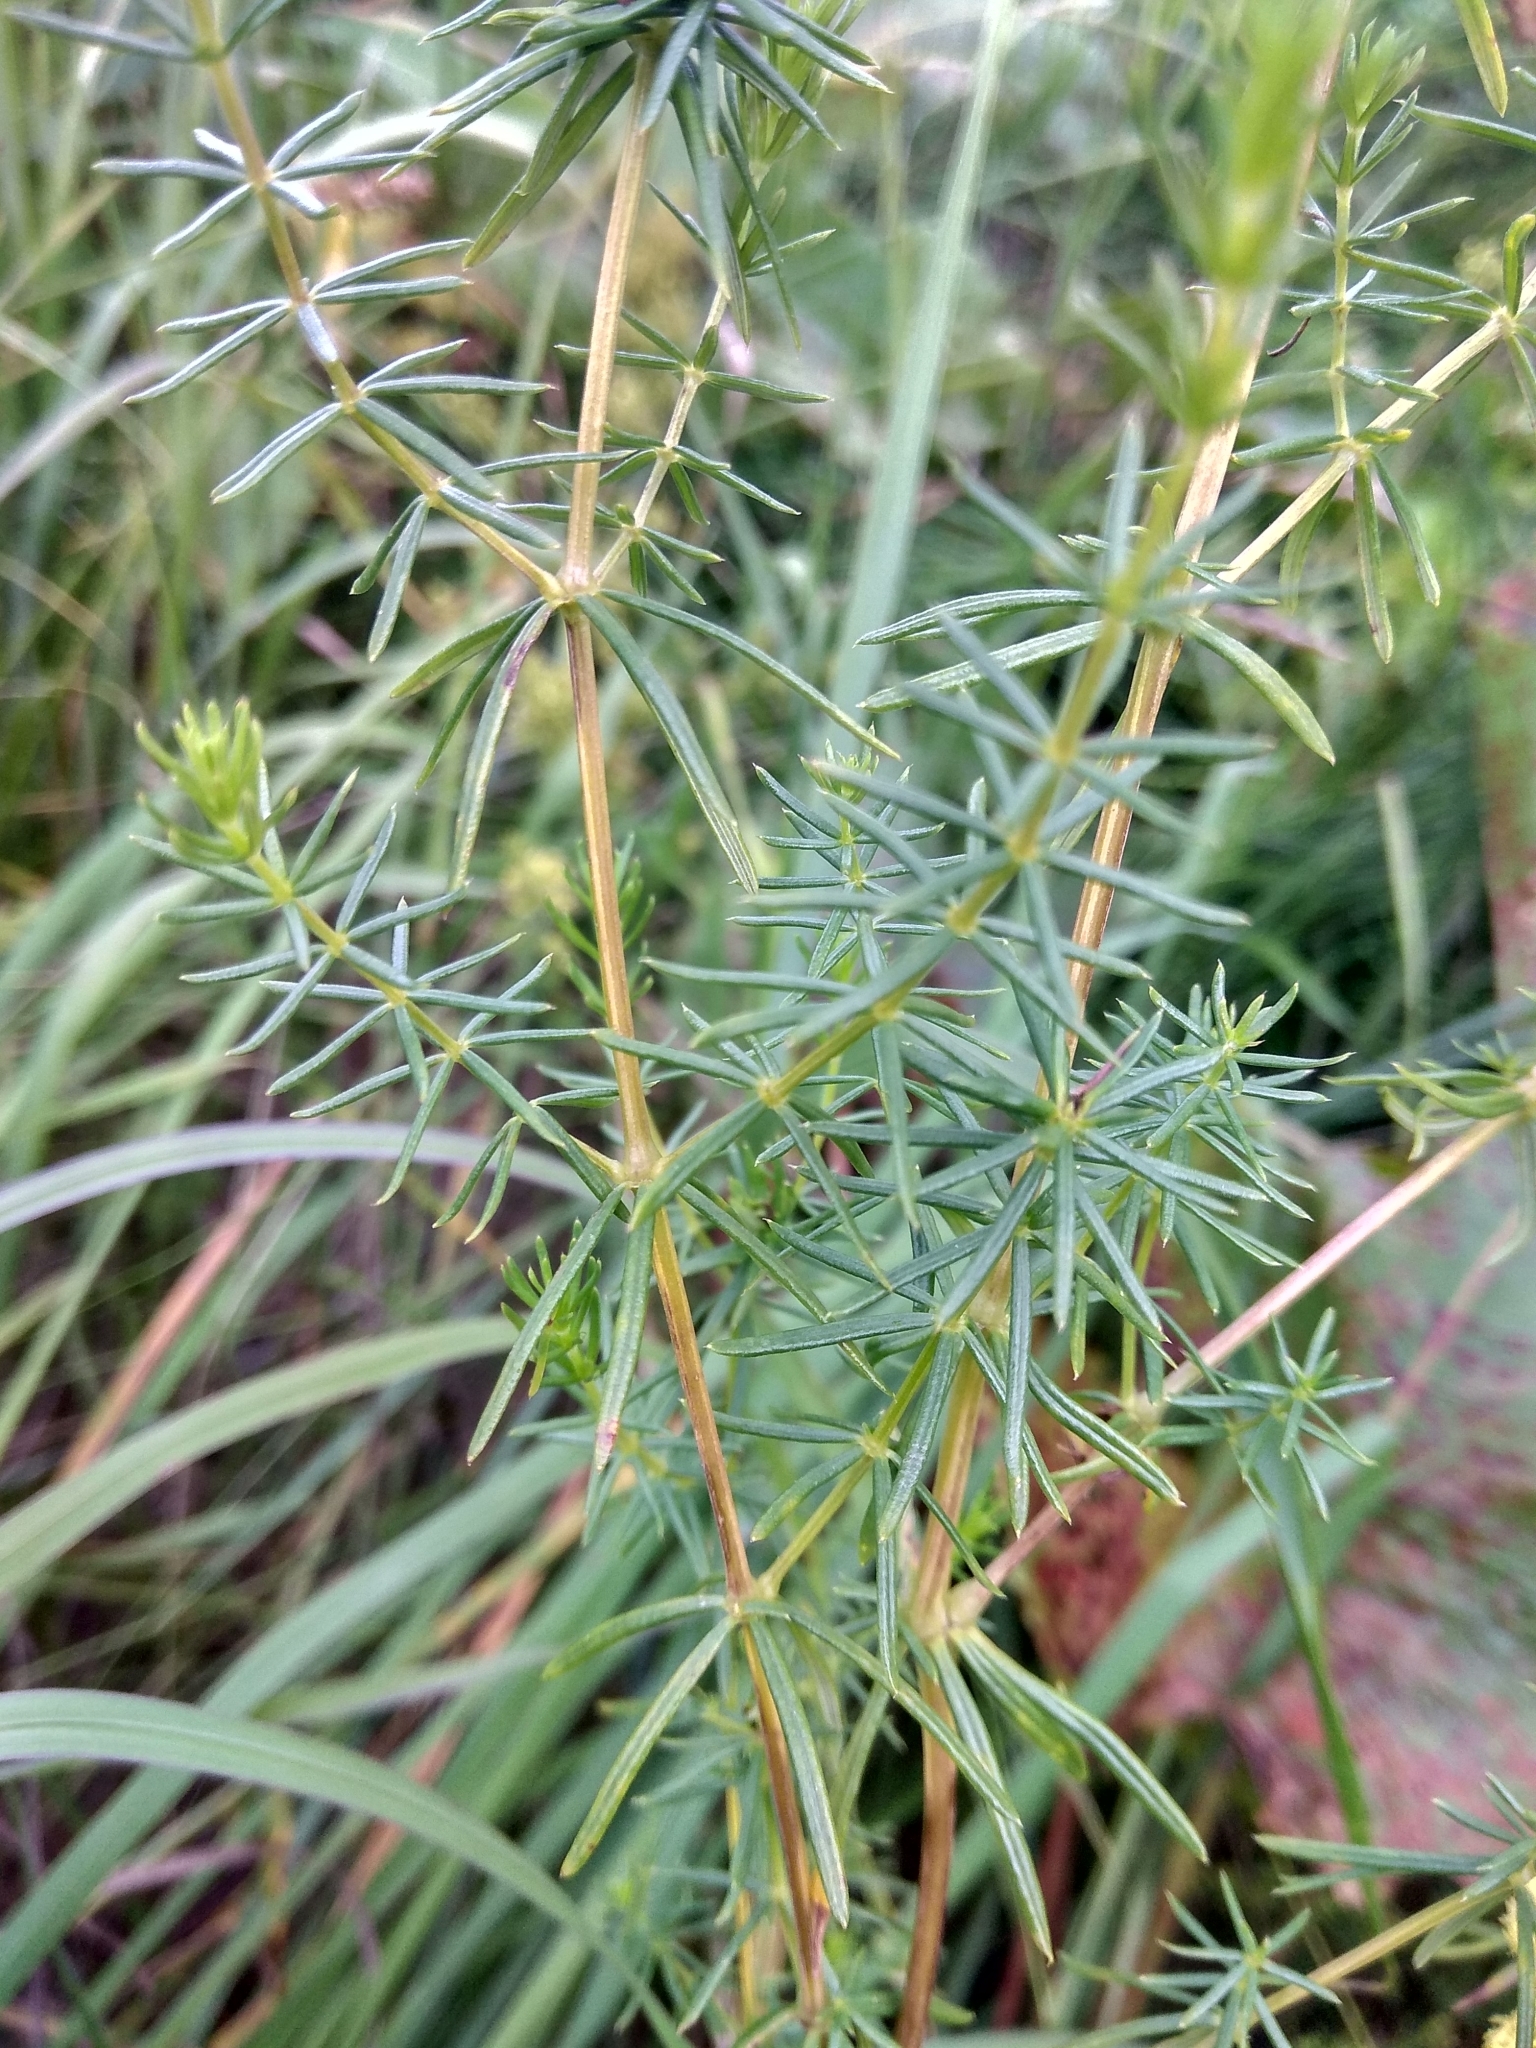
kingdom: Plantae
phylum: Tracheophyta
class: Magnoliopsida
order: Gentianales
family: Rubiaceae
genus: Galium
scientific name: Galium pomeranicum
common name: Bedstraw
